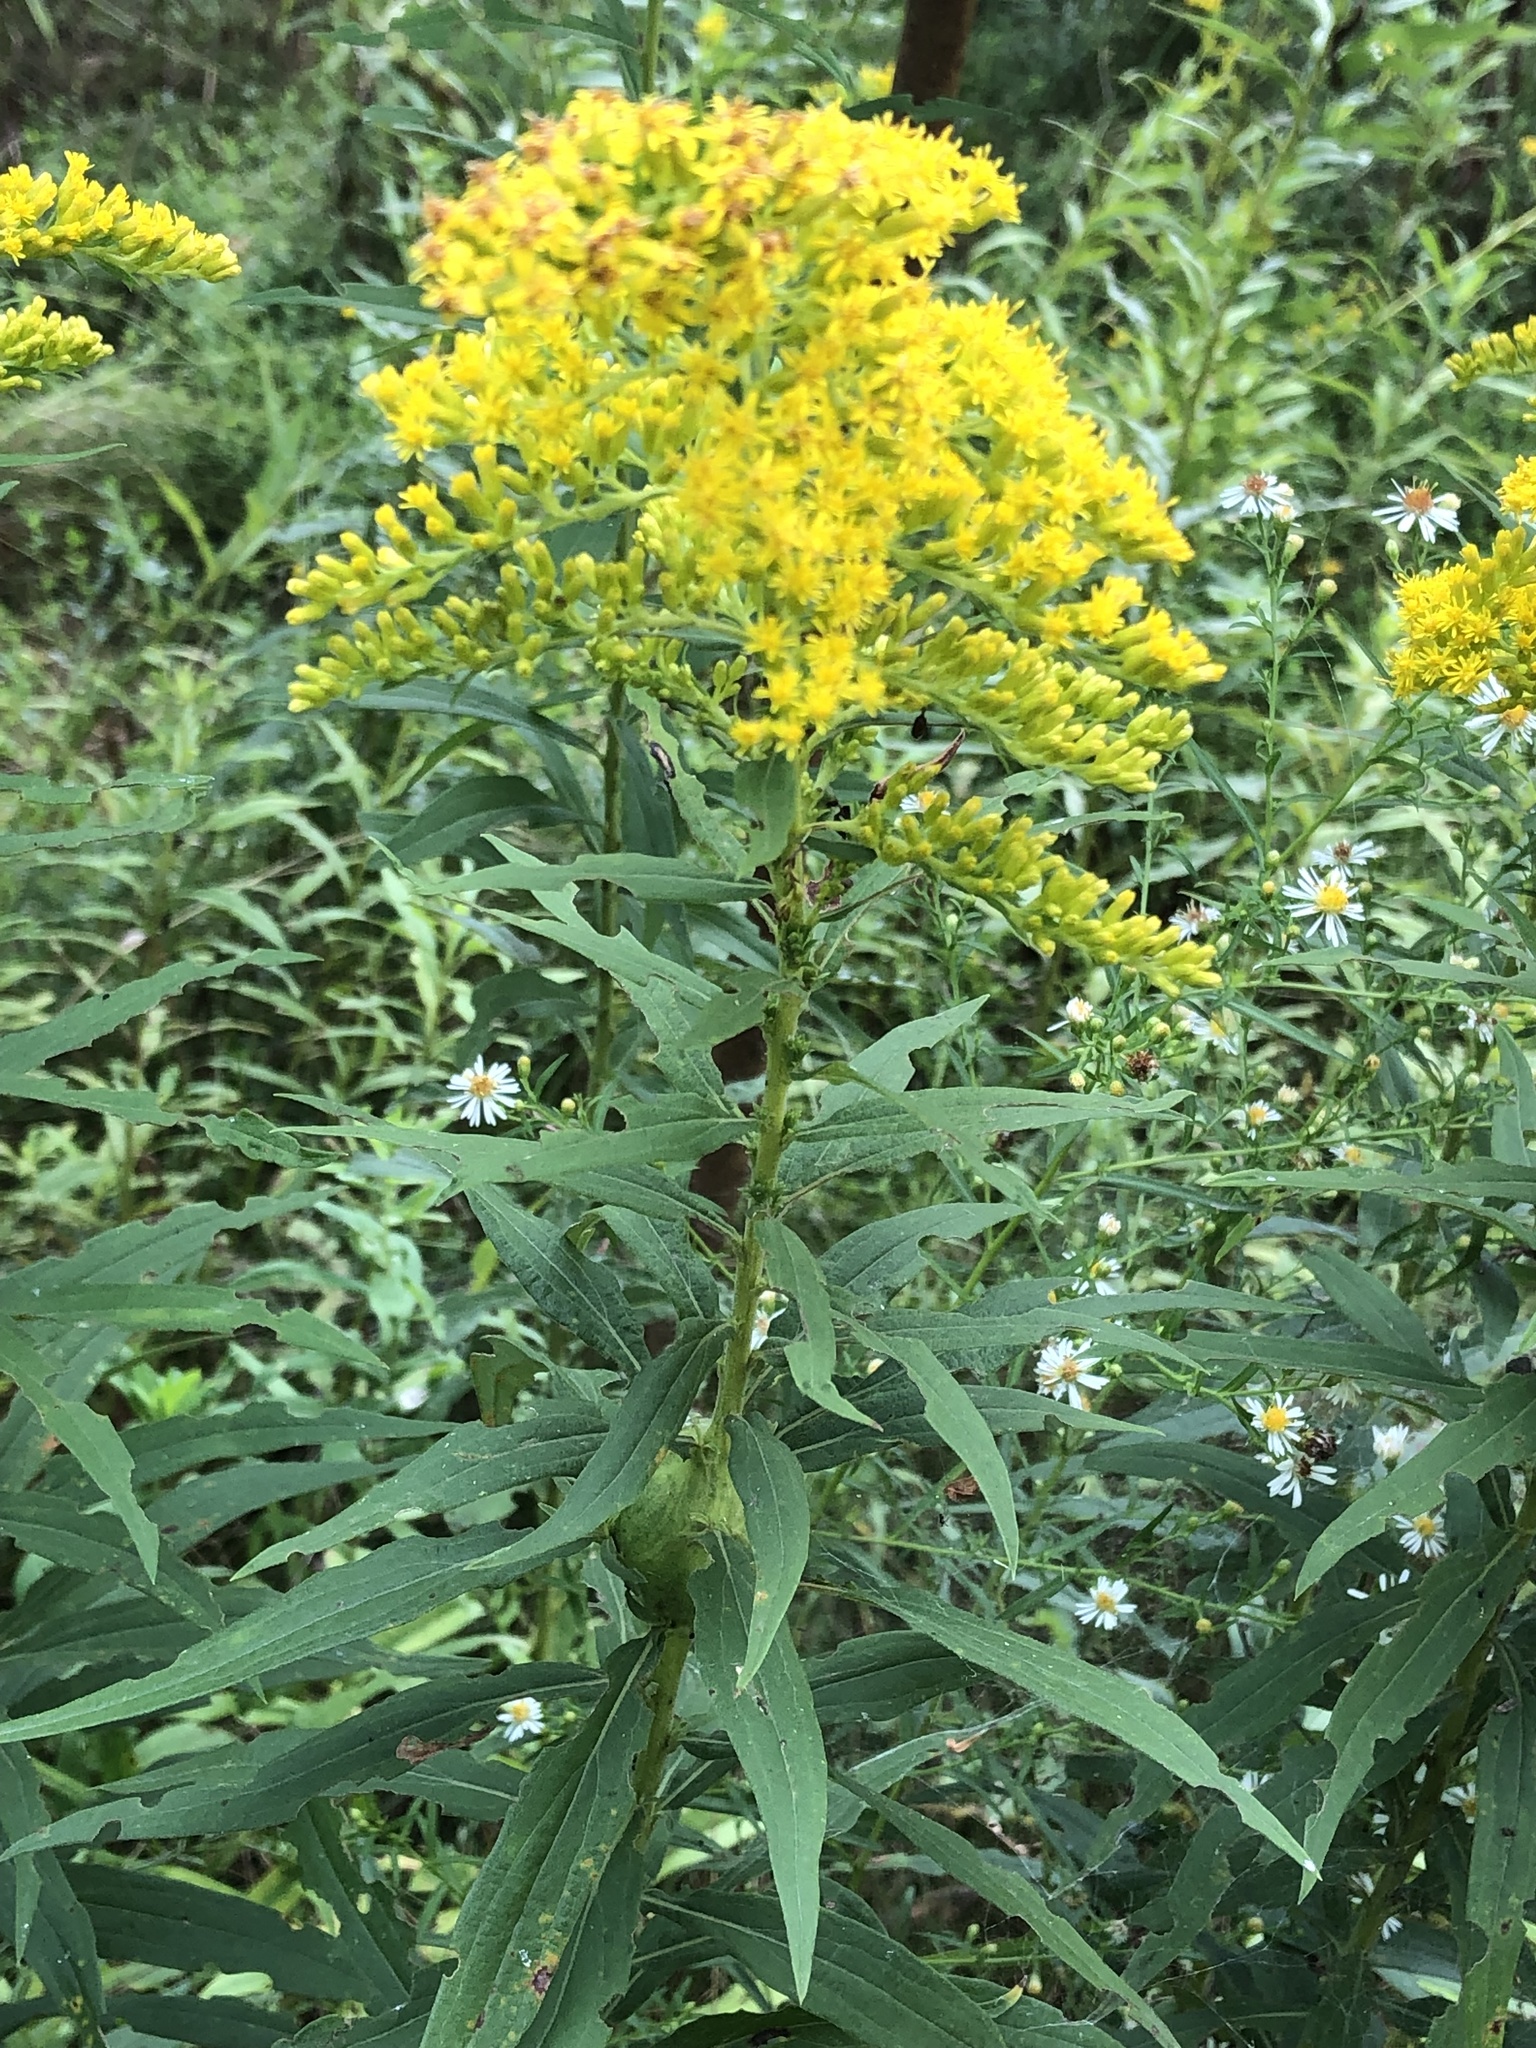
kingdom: Plantae
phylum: Tracheophyta
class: Magnoliopsida
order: Asterales
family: Asteraceae
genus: Solidago
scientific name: Solidago altissima
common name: Late goldenrod
